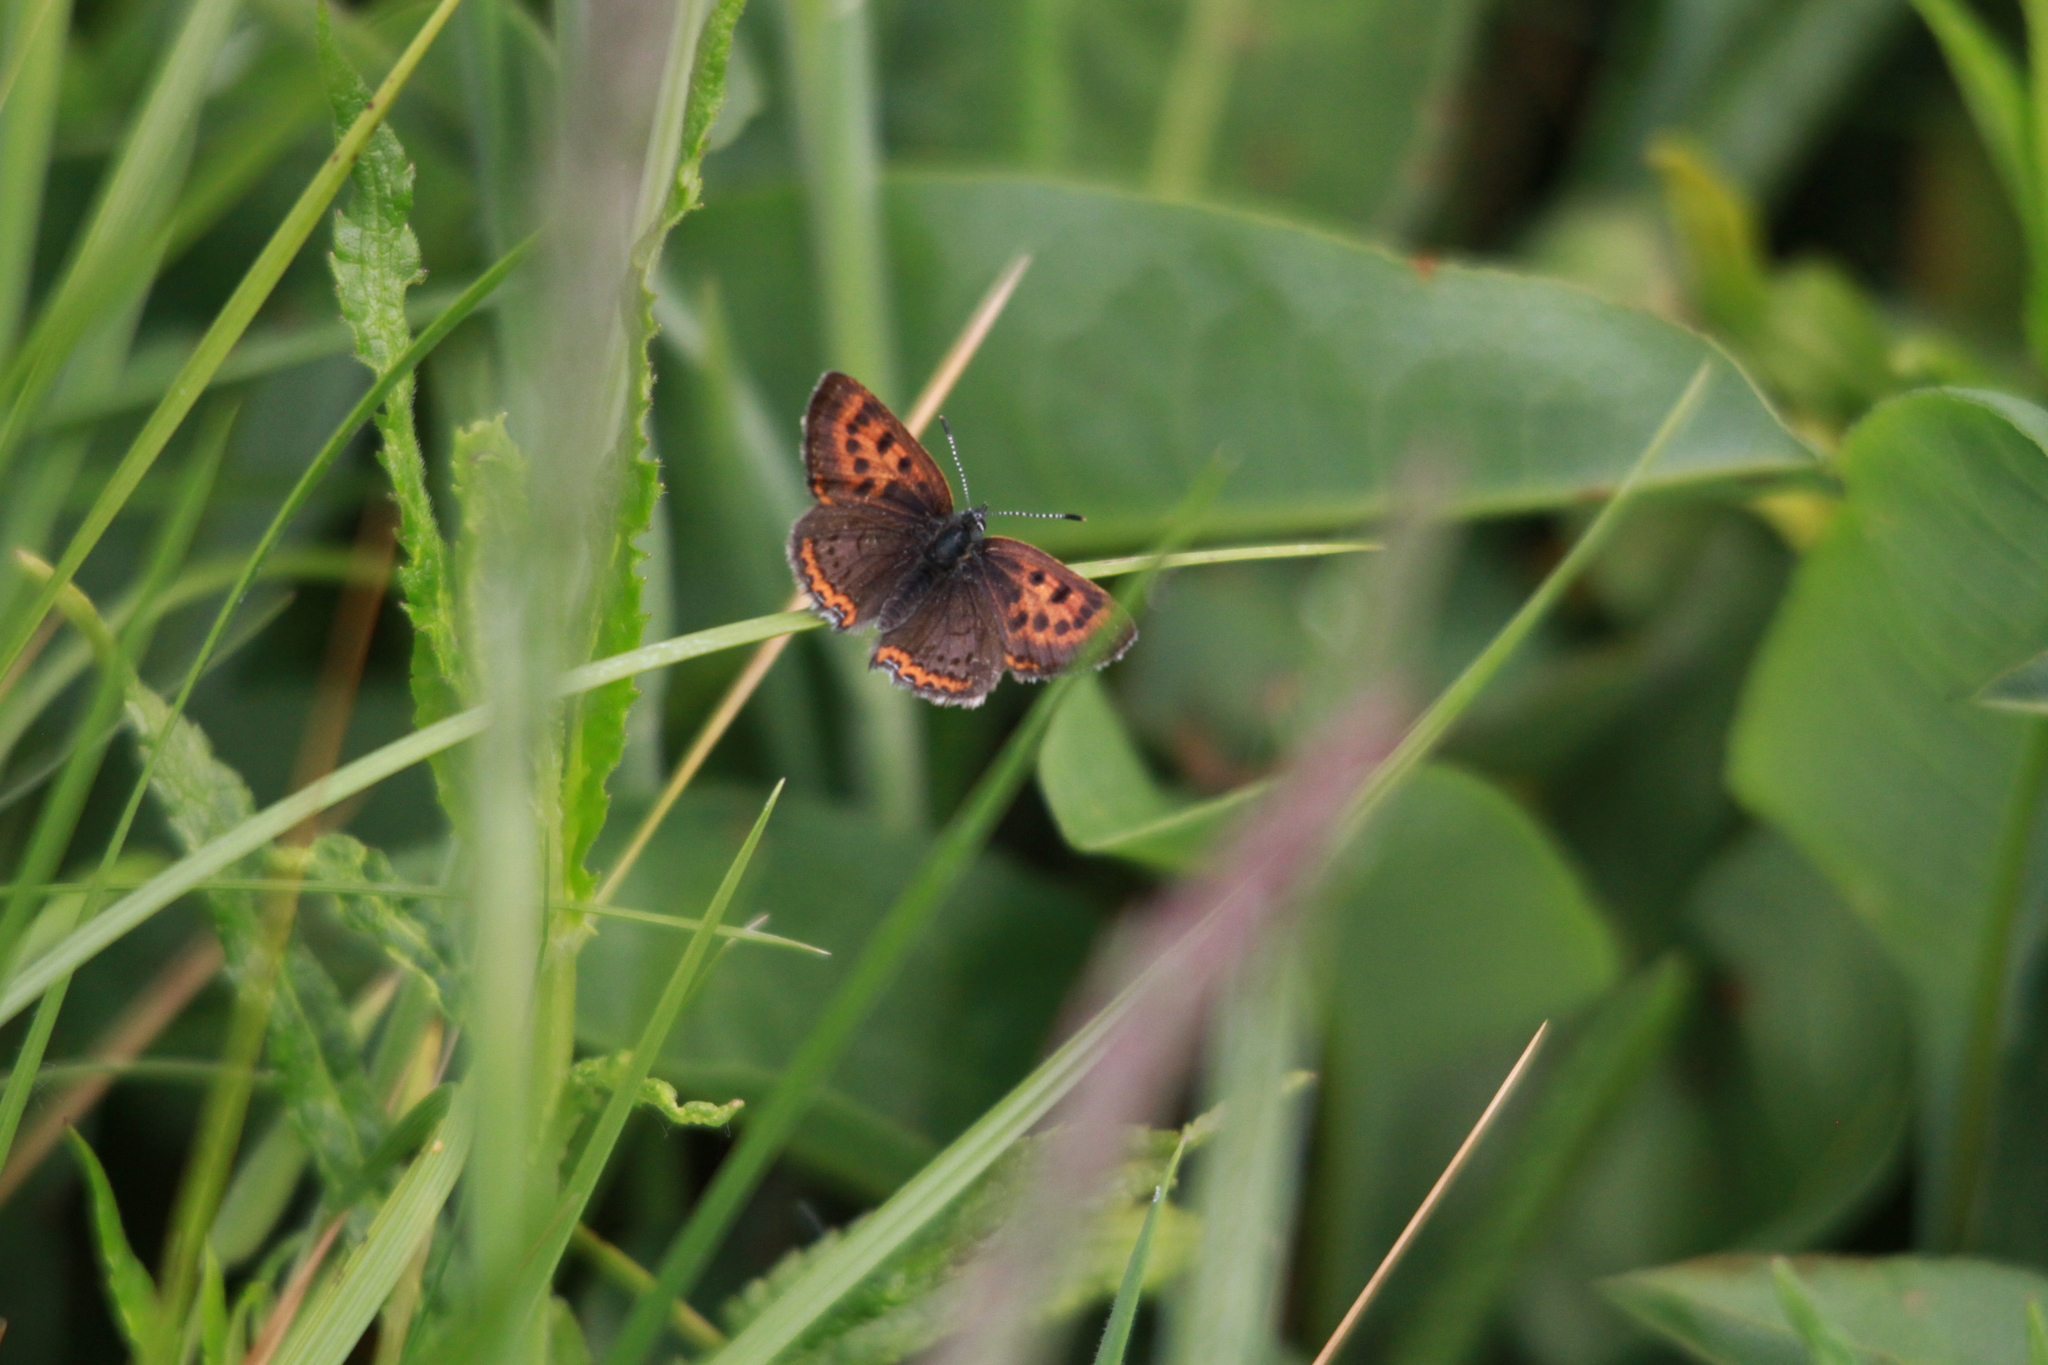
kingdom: Animalia
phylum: Arthropoda
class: Insecta
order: Lepidoptera
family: Lycaenidae
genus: Helleia
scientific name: Helleia helle
